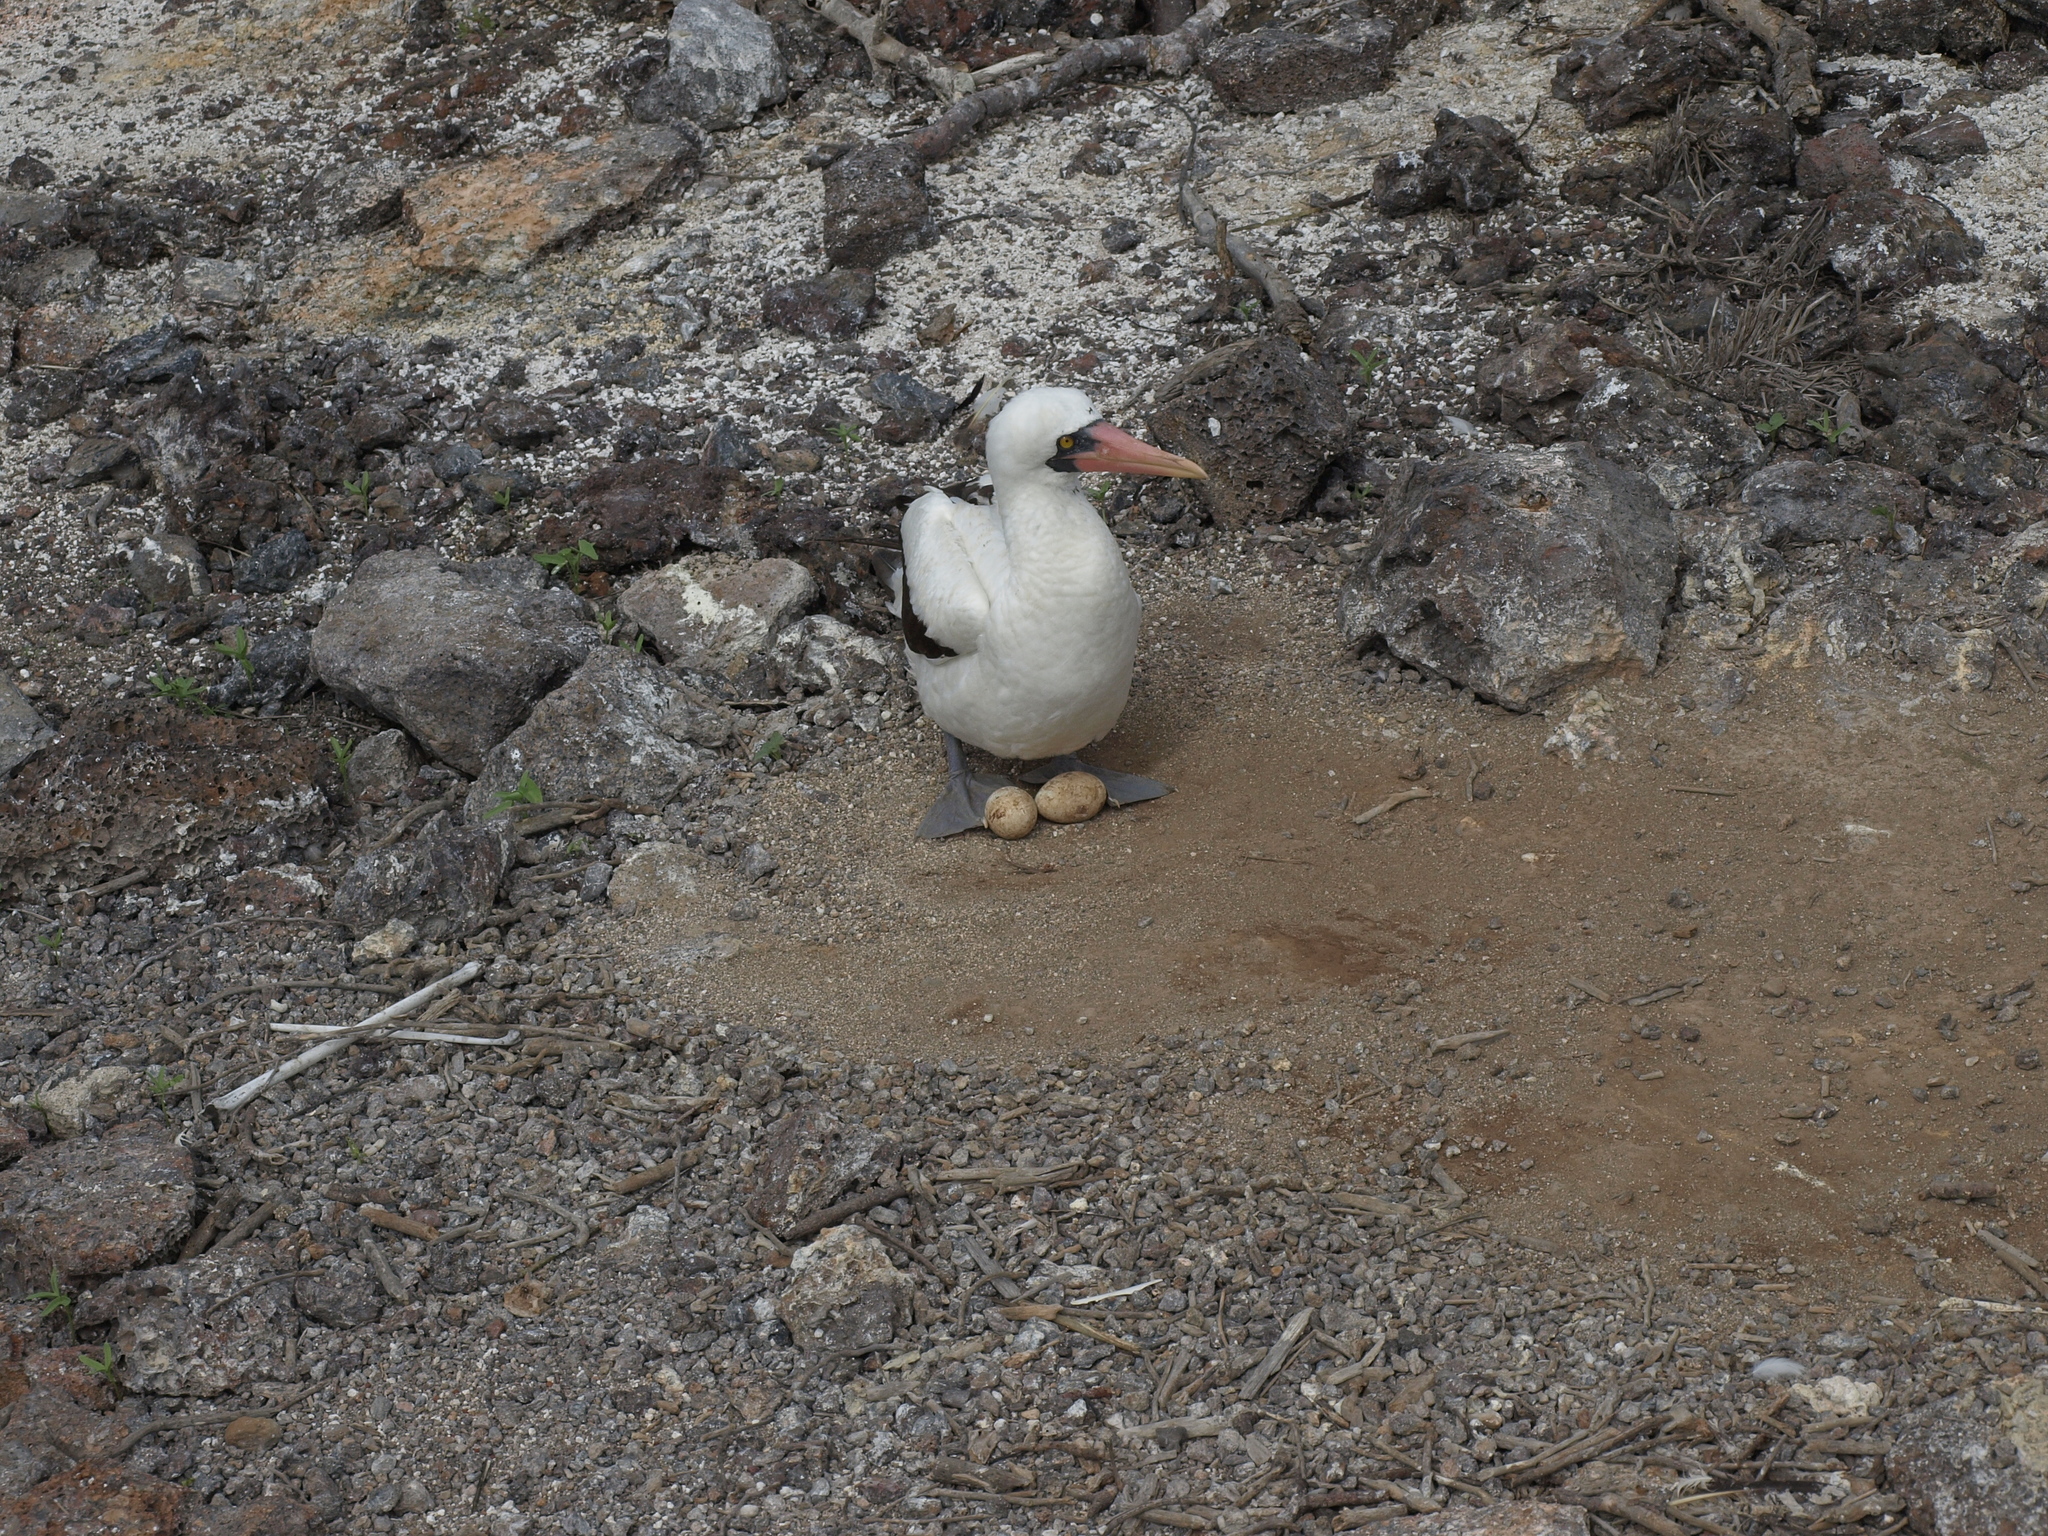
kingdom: Animalia
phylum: Chordata
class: Aves
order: Suliformes
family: Sulidae
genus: Sula
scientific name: Sula granti
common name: Nazca booby
